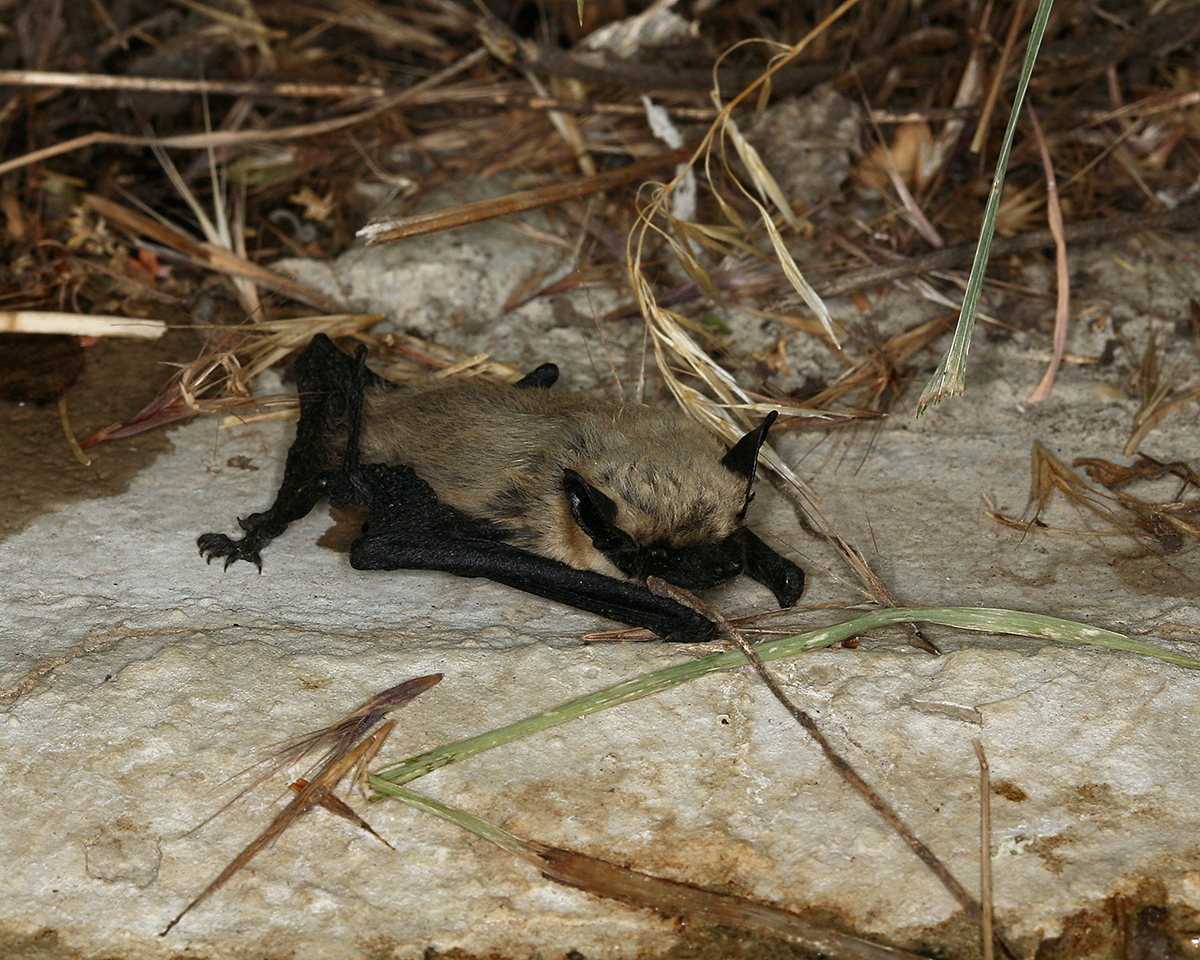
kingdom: Animalia
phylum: Chordata
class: Mammalia
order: Chiroptera
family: Vespertilionidae
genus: Parastrellus
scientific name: Parastrellus hesperus
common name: Canyon bat
